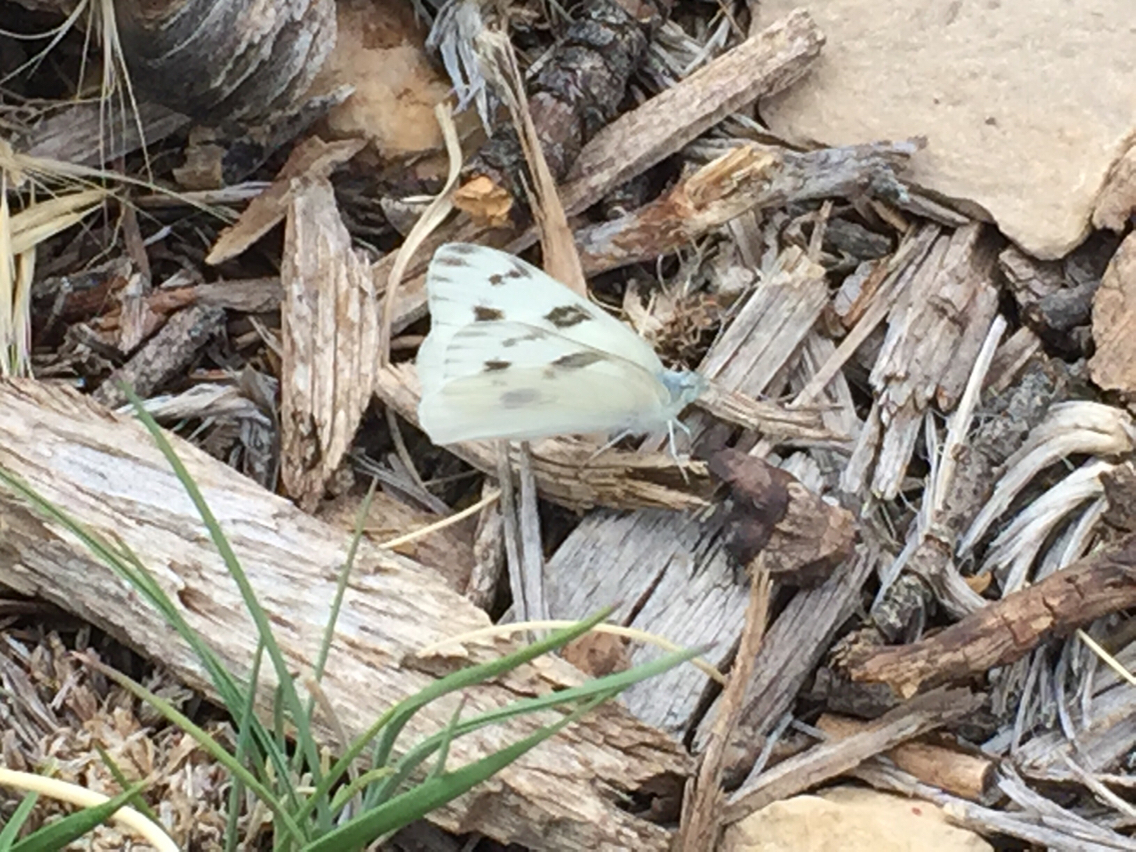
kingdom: Animalia
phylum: Arthropoda
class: Insecta
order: Lepidoptera
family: Pieridae
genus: Pontia
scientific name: Pontia protodice
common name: Checkered white
